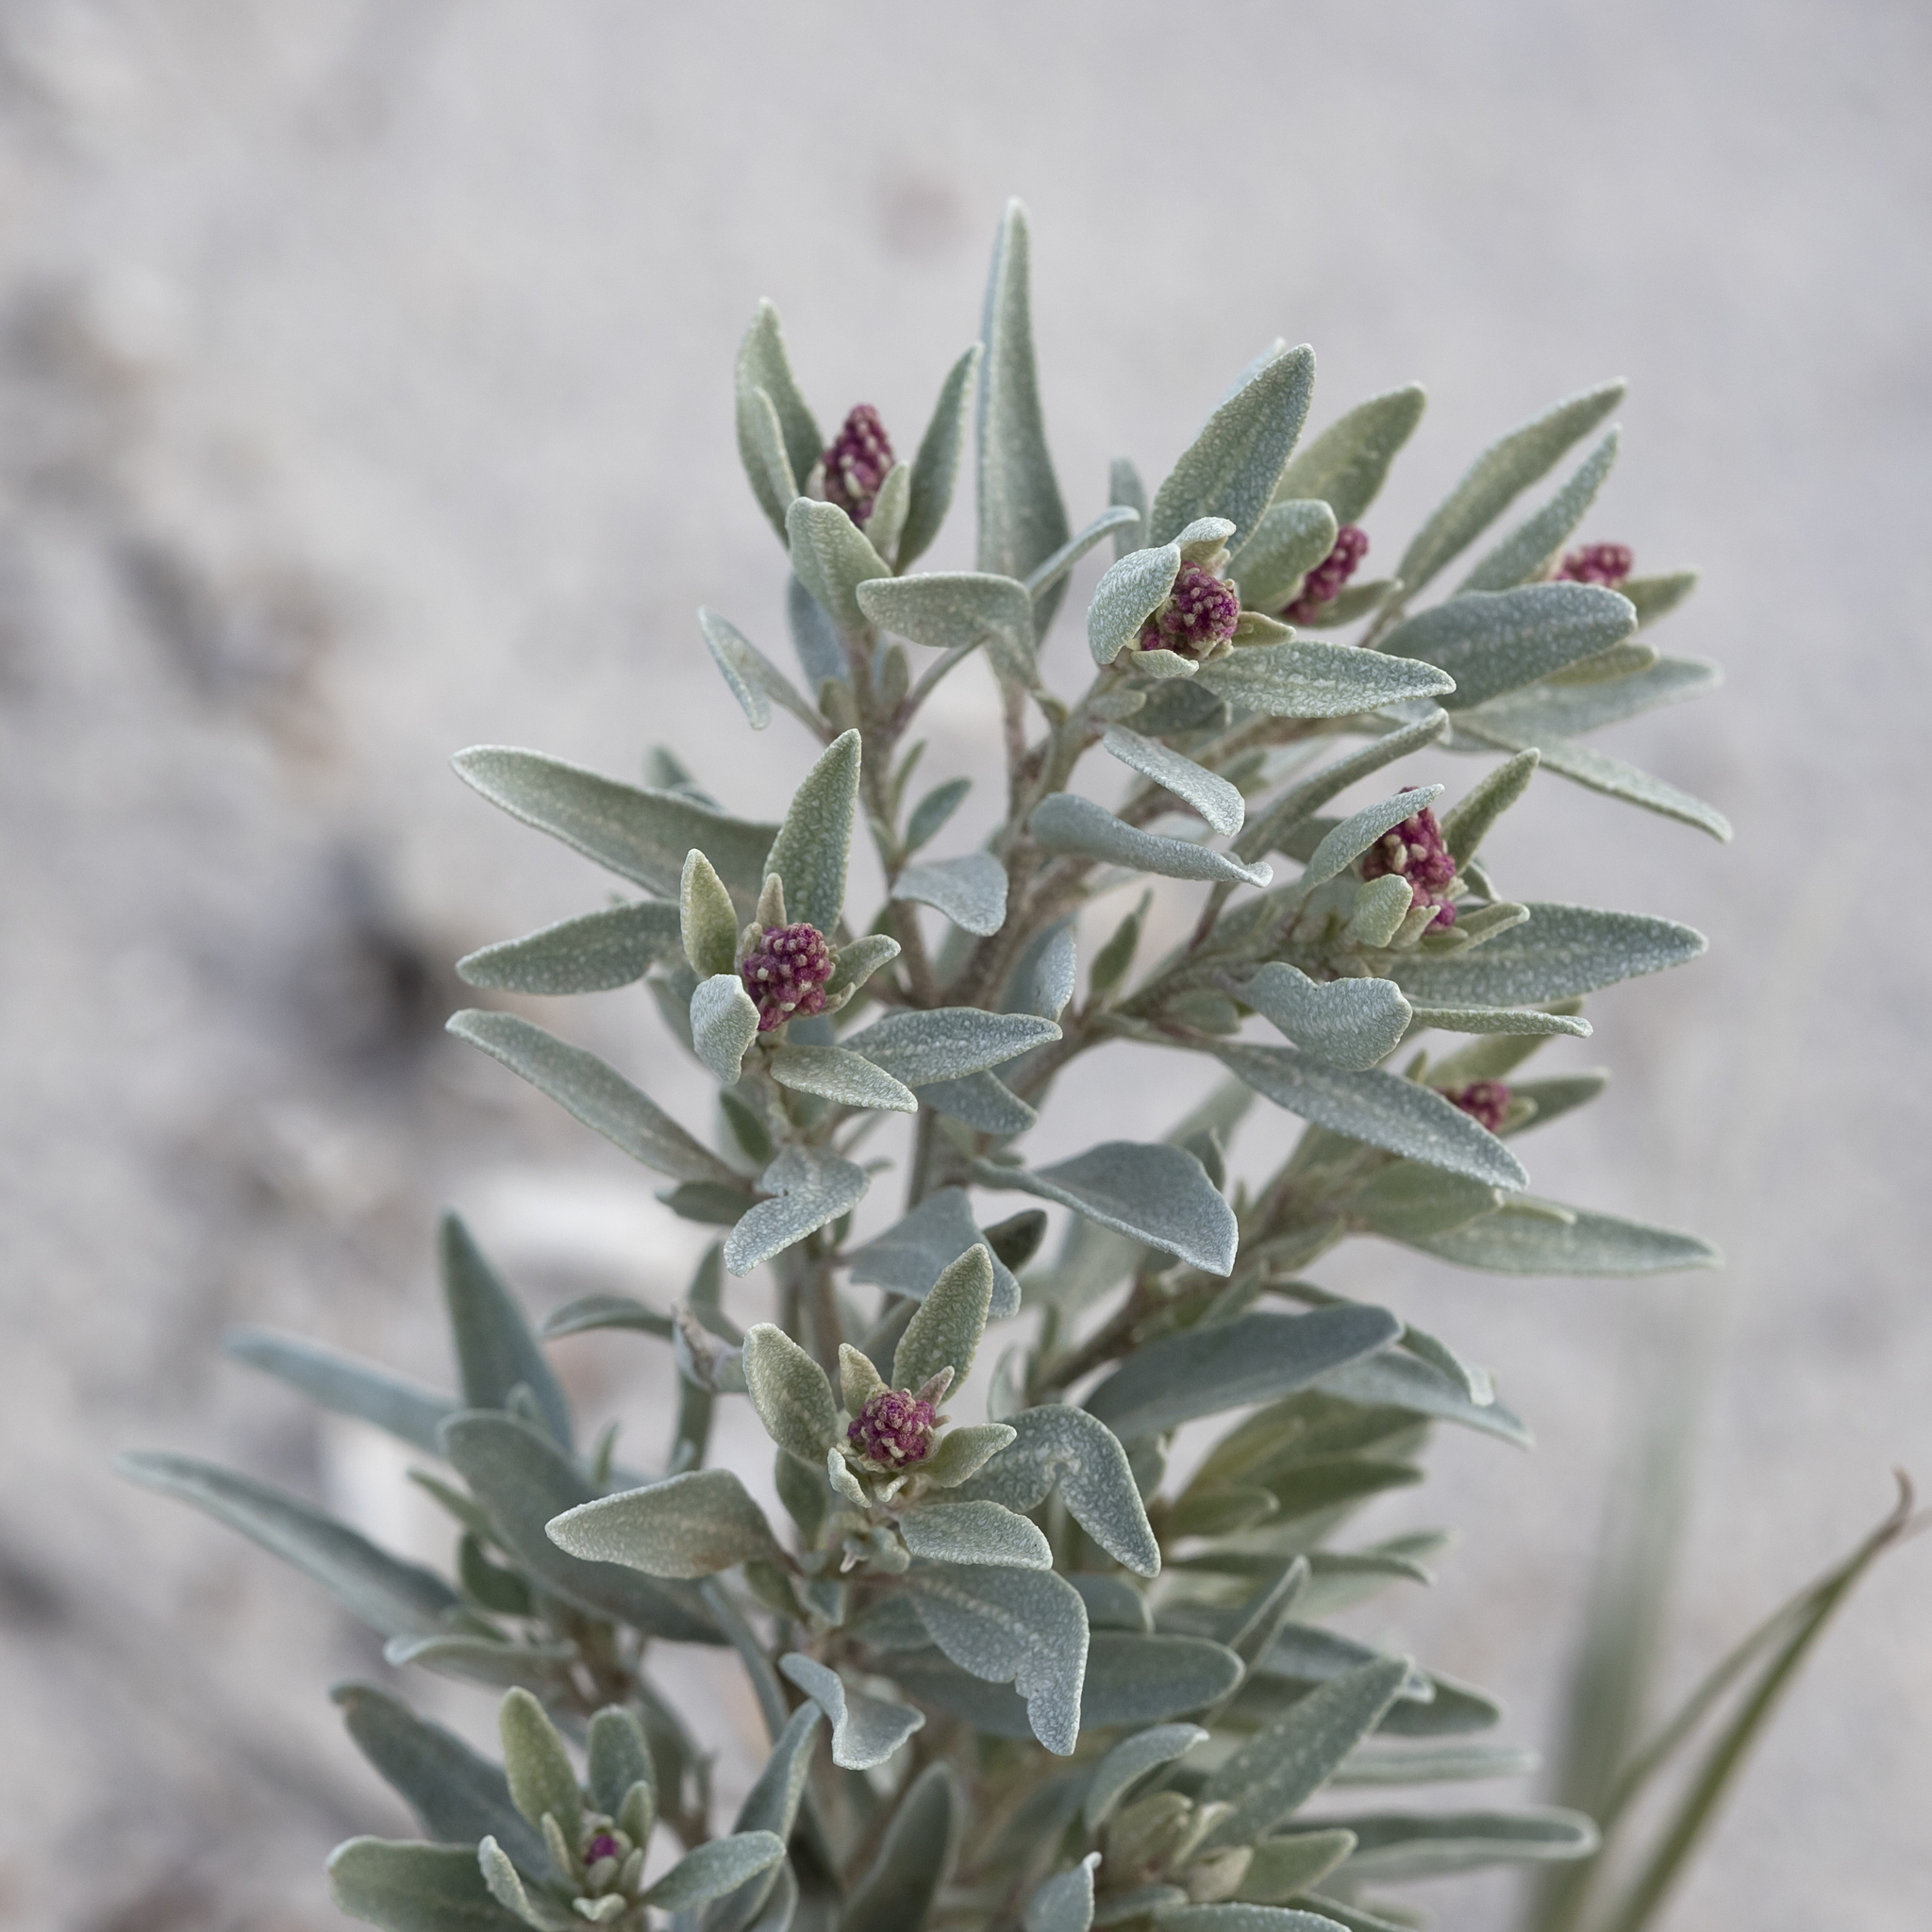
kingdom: Plantae
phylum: Tracheophyta
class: Magnoliopsida
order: Caryophyllales
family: Amaranthaceae
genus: Atriplex
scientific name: Atriplex cinerea
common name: Grey saltbush
